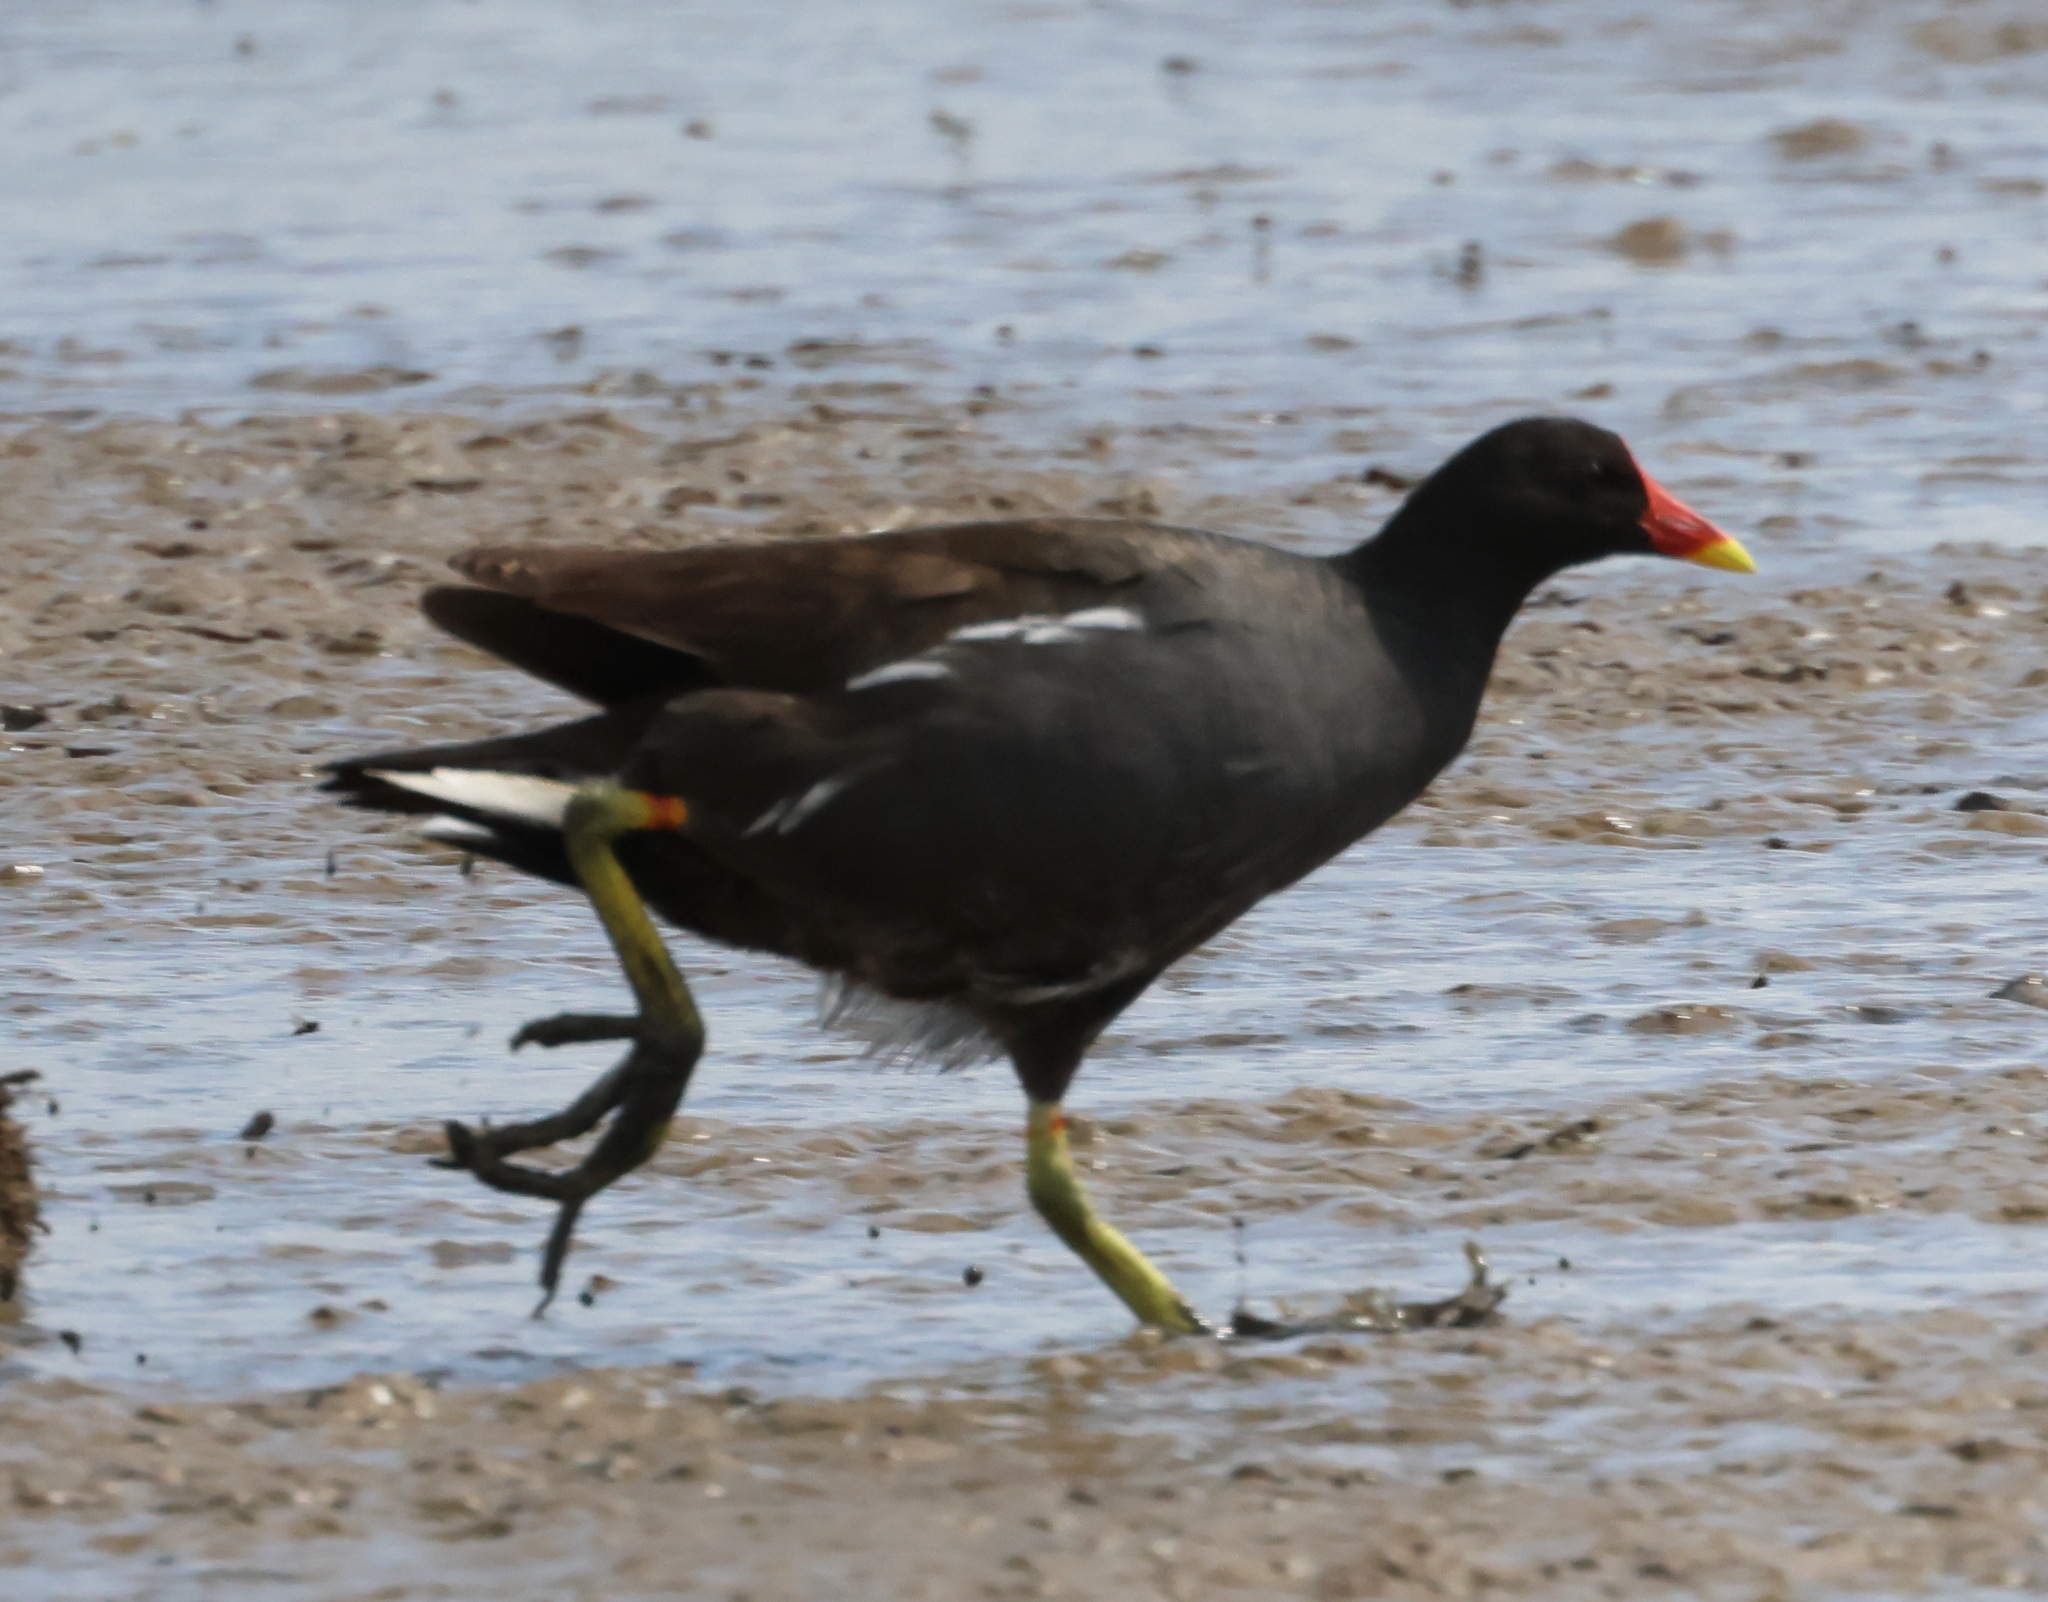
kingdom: Animalia
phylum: Chordata
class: Aves
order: Gruiformes
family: Rallidae
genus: Gallinula
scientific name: Gallinula chloropus
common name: Common moorhen
